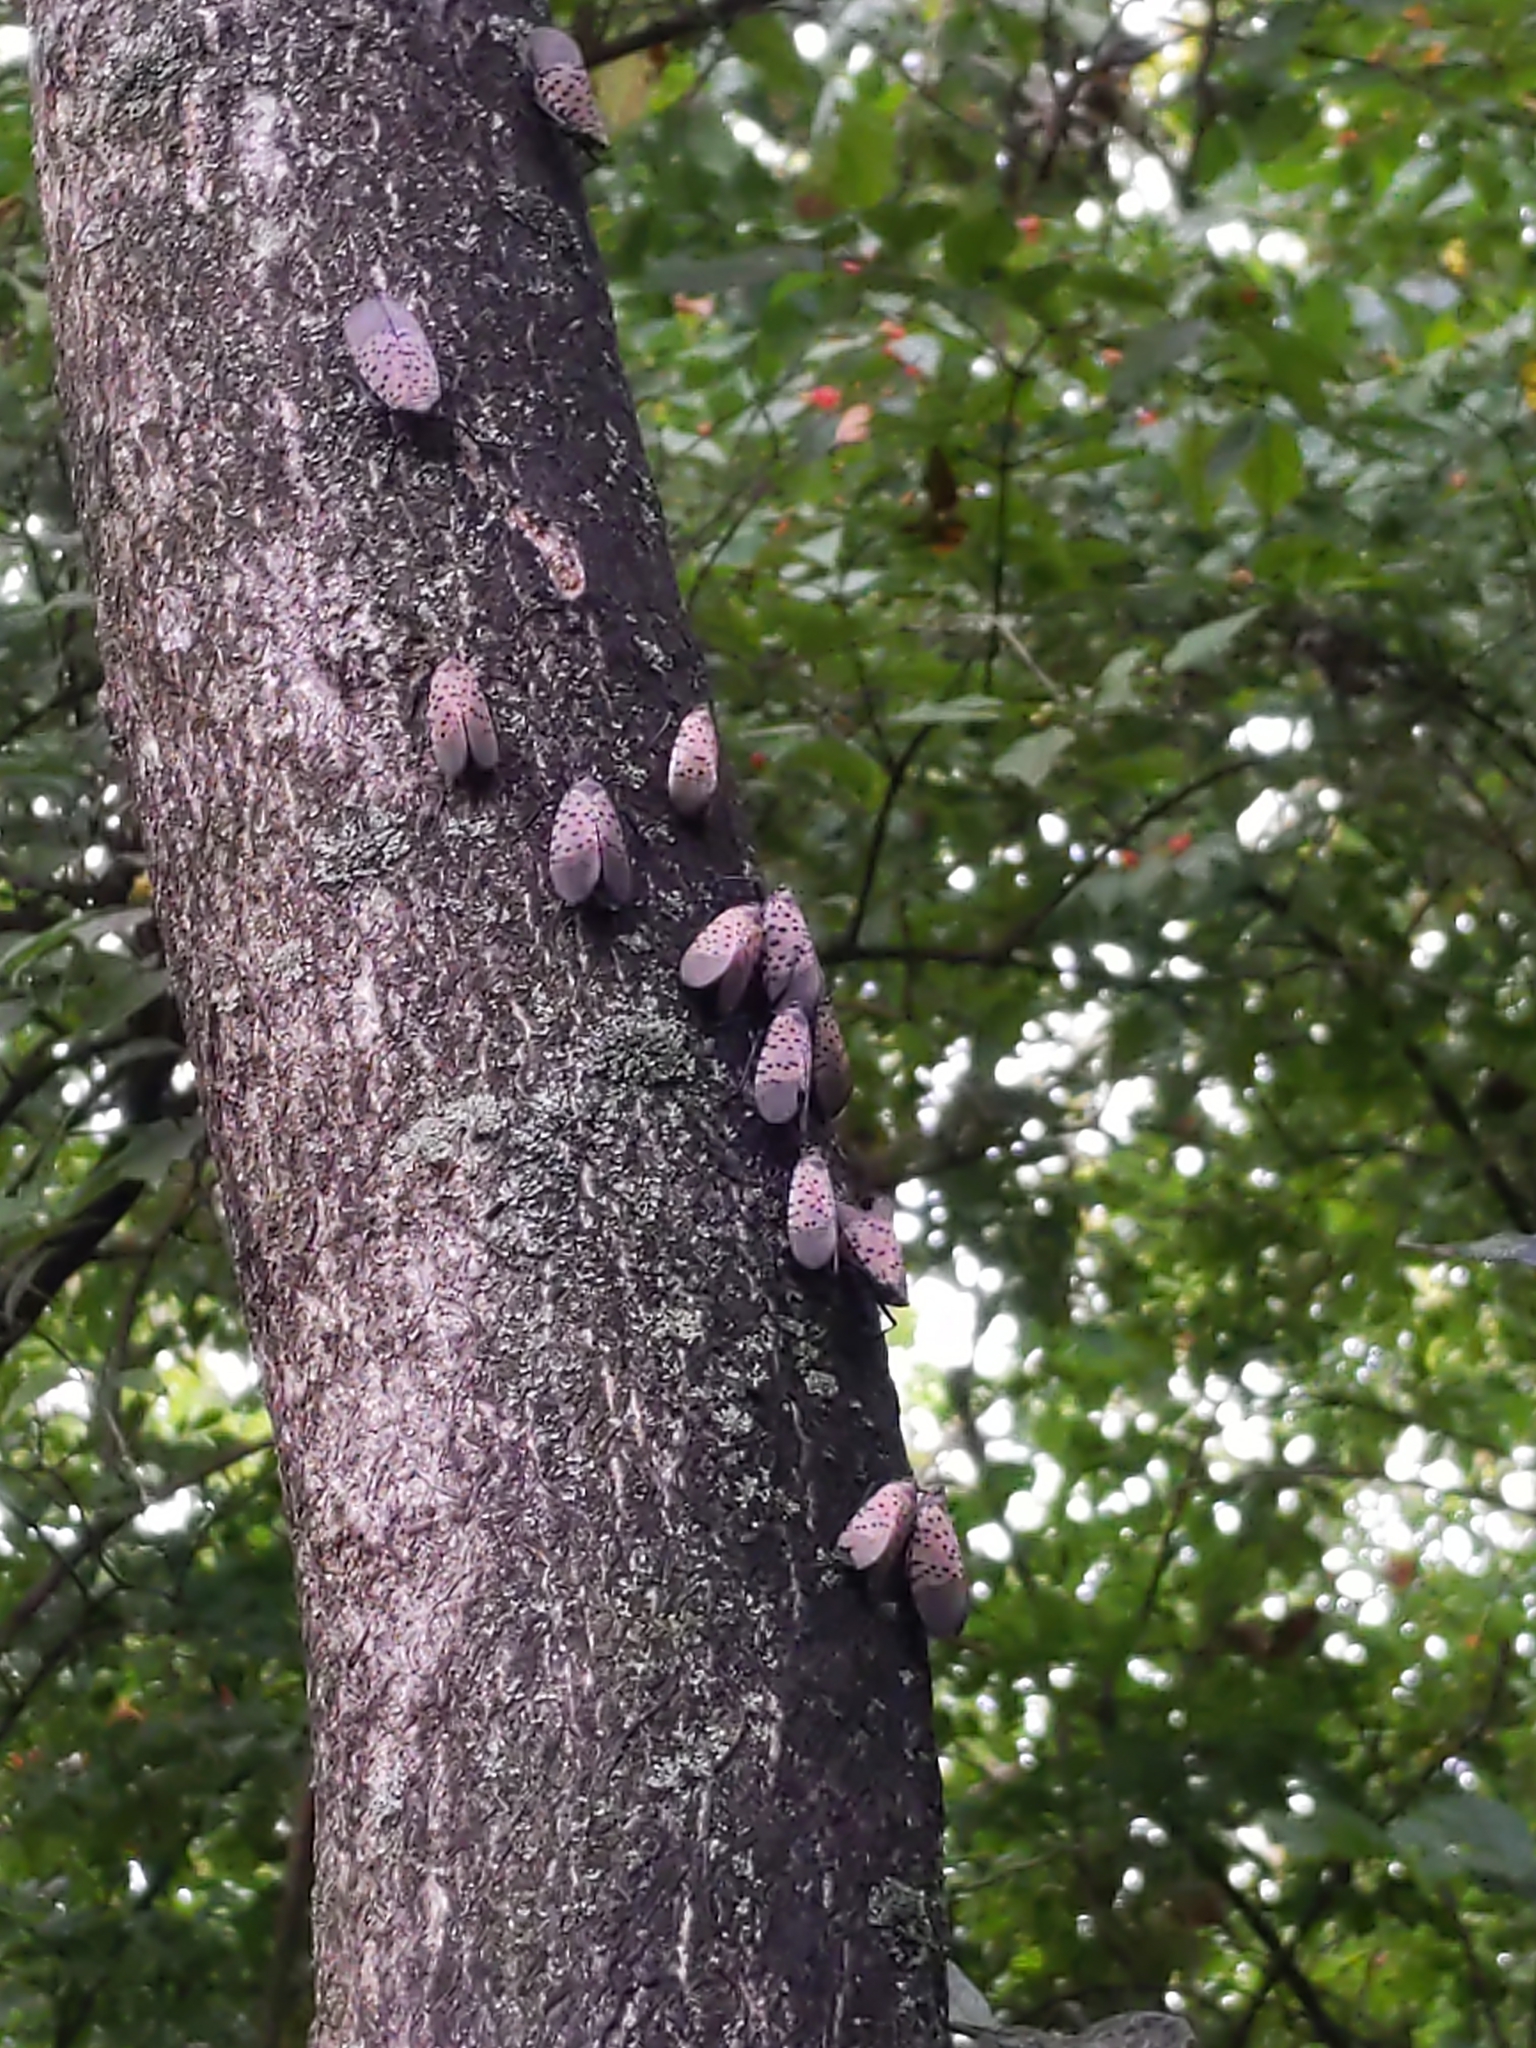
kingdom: Animalia
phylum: Arthropoda
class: Insecta
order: Hemiptera
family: Fulgoridae
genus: Lycorma
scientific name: Lycorma delicatula
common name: Spotted lanternfly
